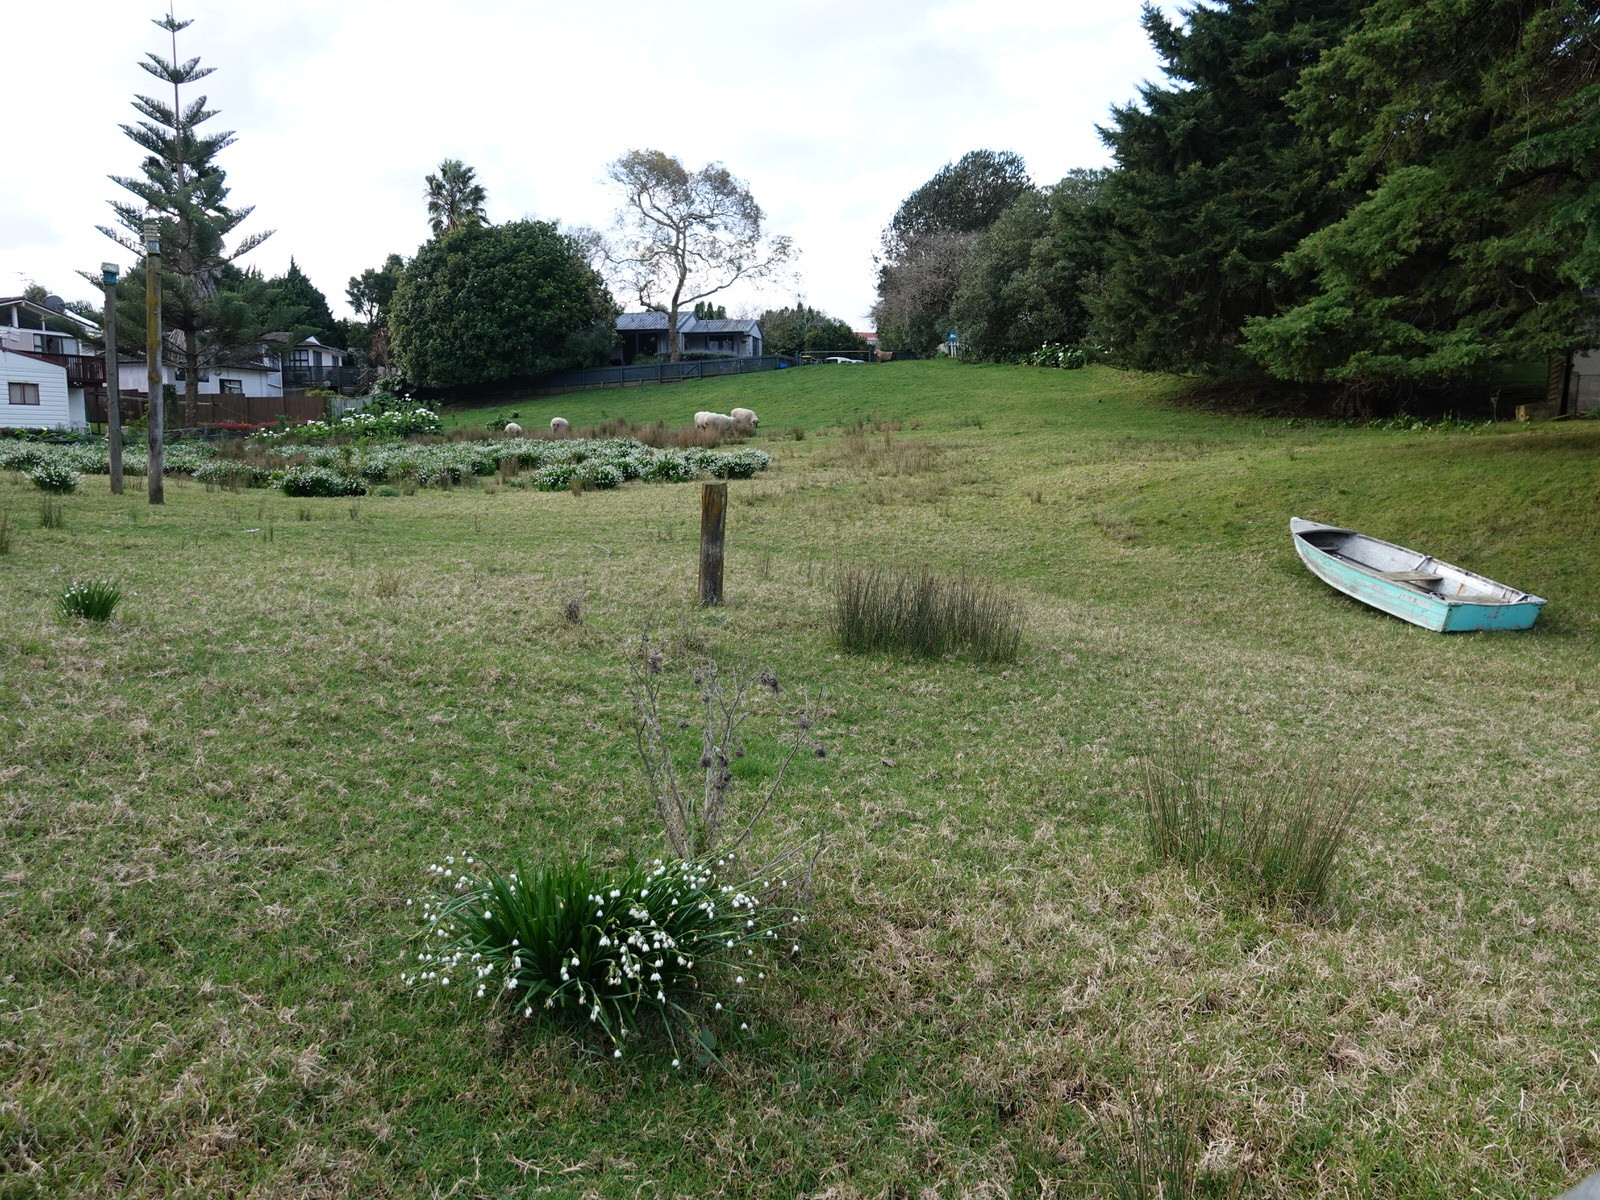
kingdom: Plantae
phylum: Tracheophyta
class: Liliopsida
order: Asparagales
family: Amaryllidaceae
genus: Leucojum
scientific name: Leucojum aestivum
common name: Summer snowflake
